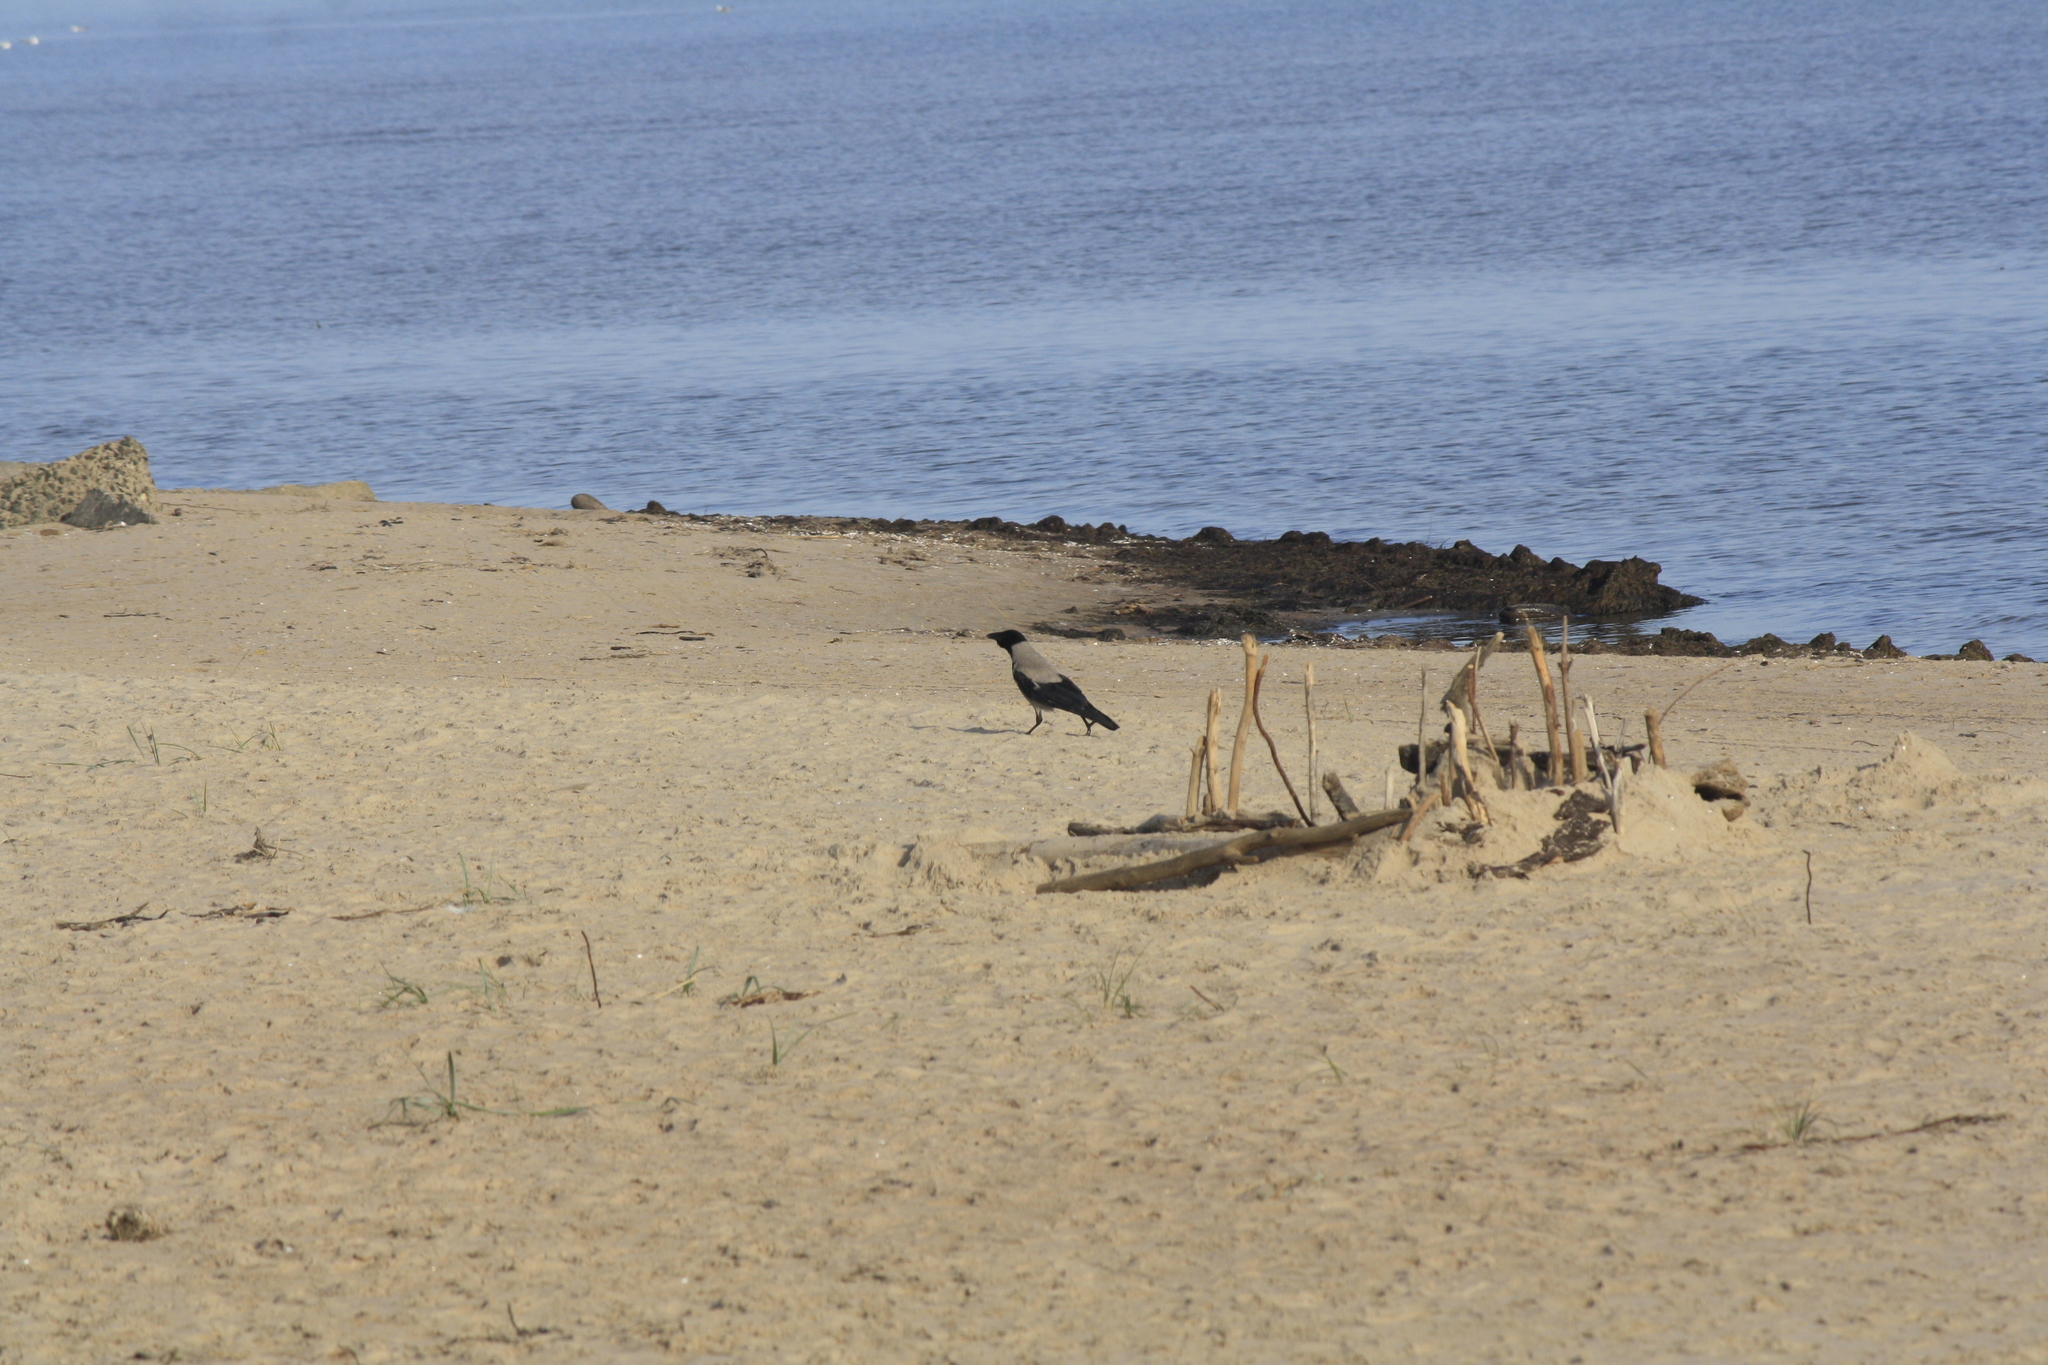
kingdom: Animalia
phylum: Chordata
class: Aves
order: Passeriformes
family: Corvidae
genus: Corvus
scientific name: Corvus cornix
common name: Hooded crow
